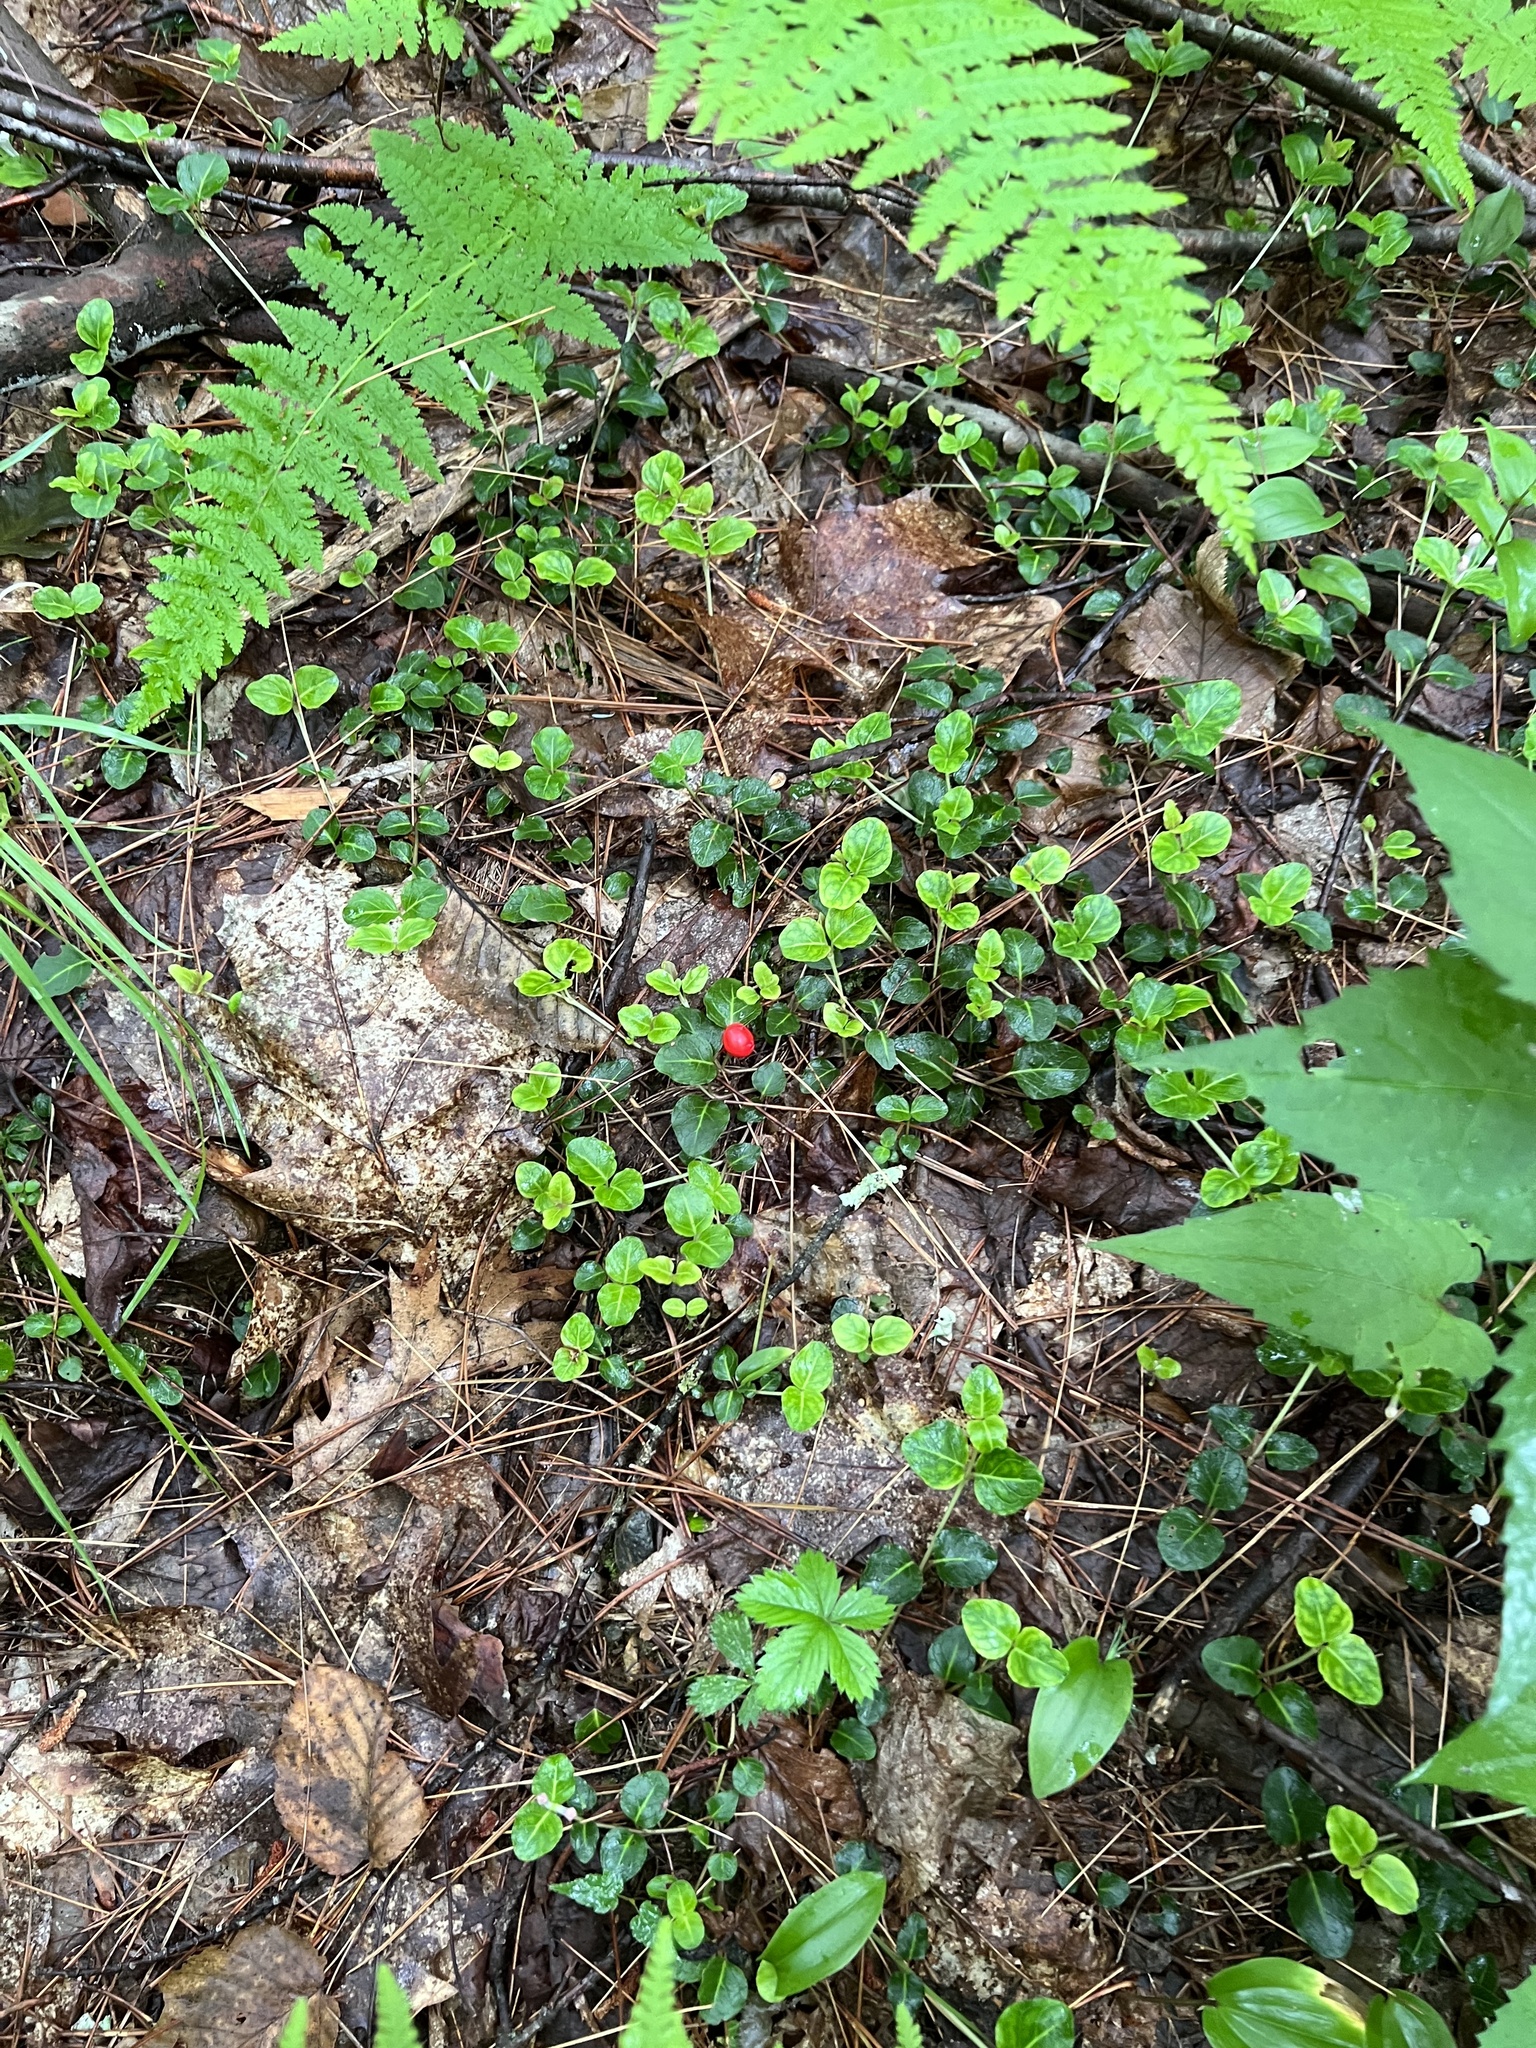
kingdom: Plantae
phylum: Tracheophyta
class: Magnoliopsida
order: Gentianales
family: Rubiaceae
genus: Mitchella
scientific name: Mitchella repens
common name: Partridge-berry
